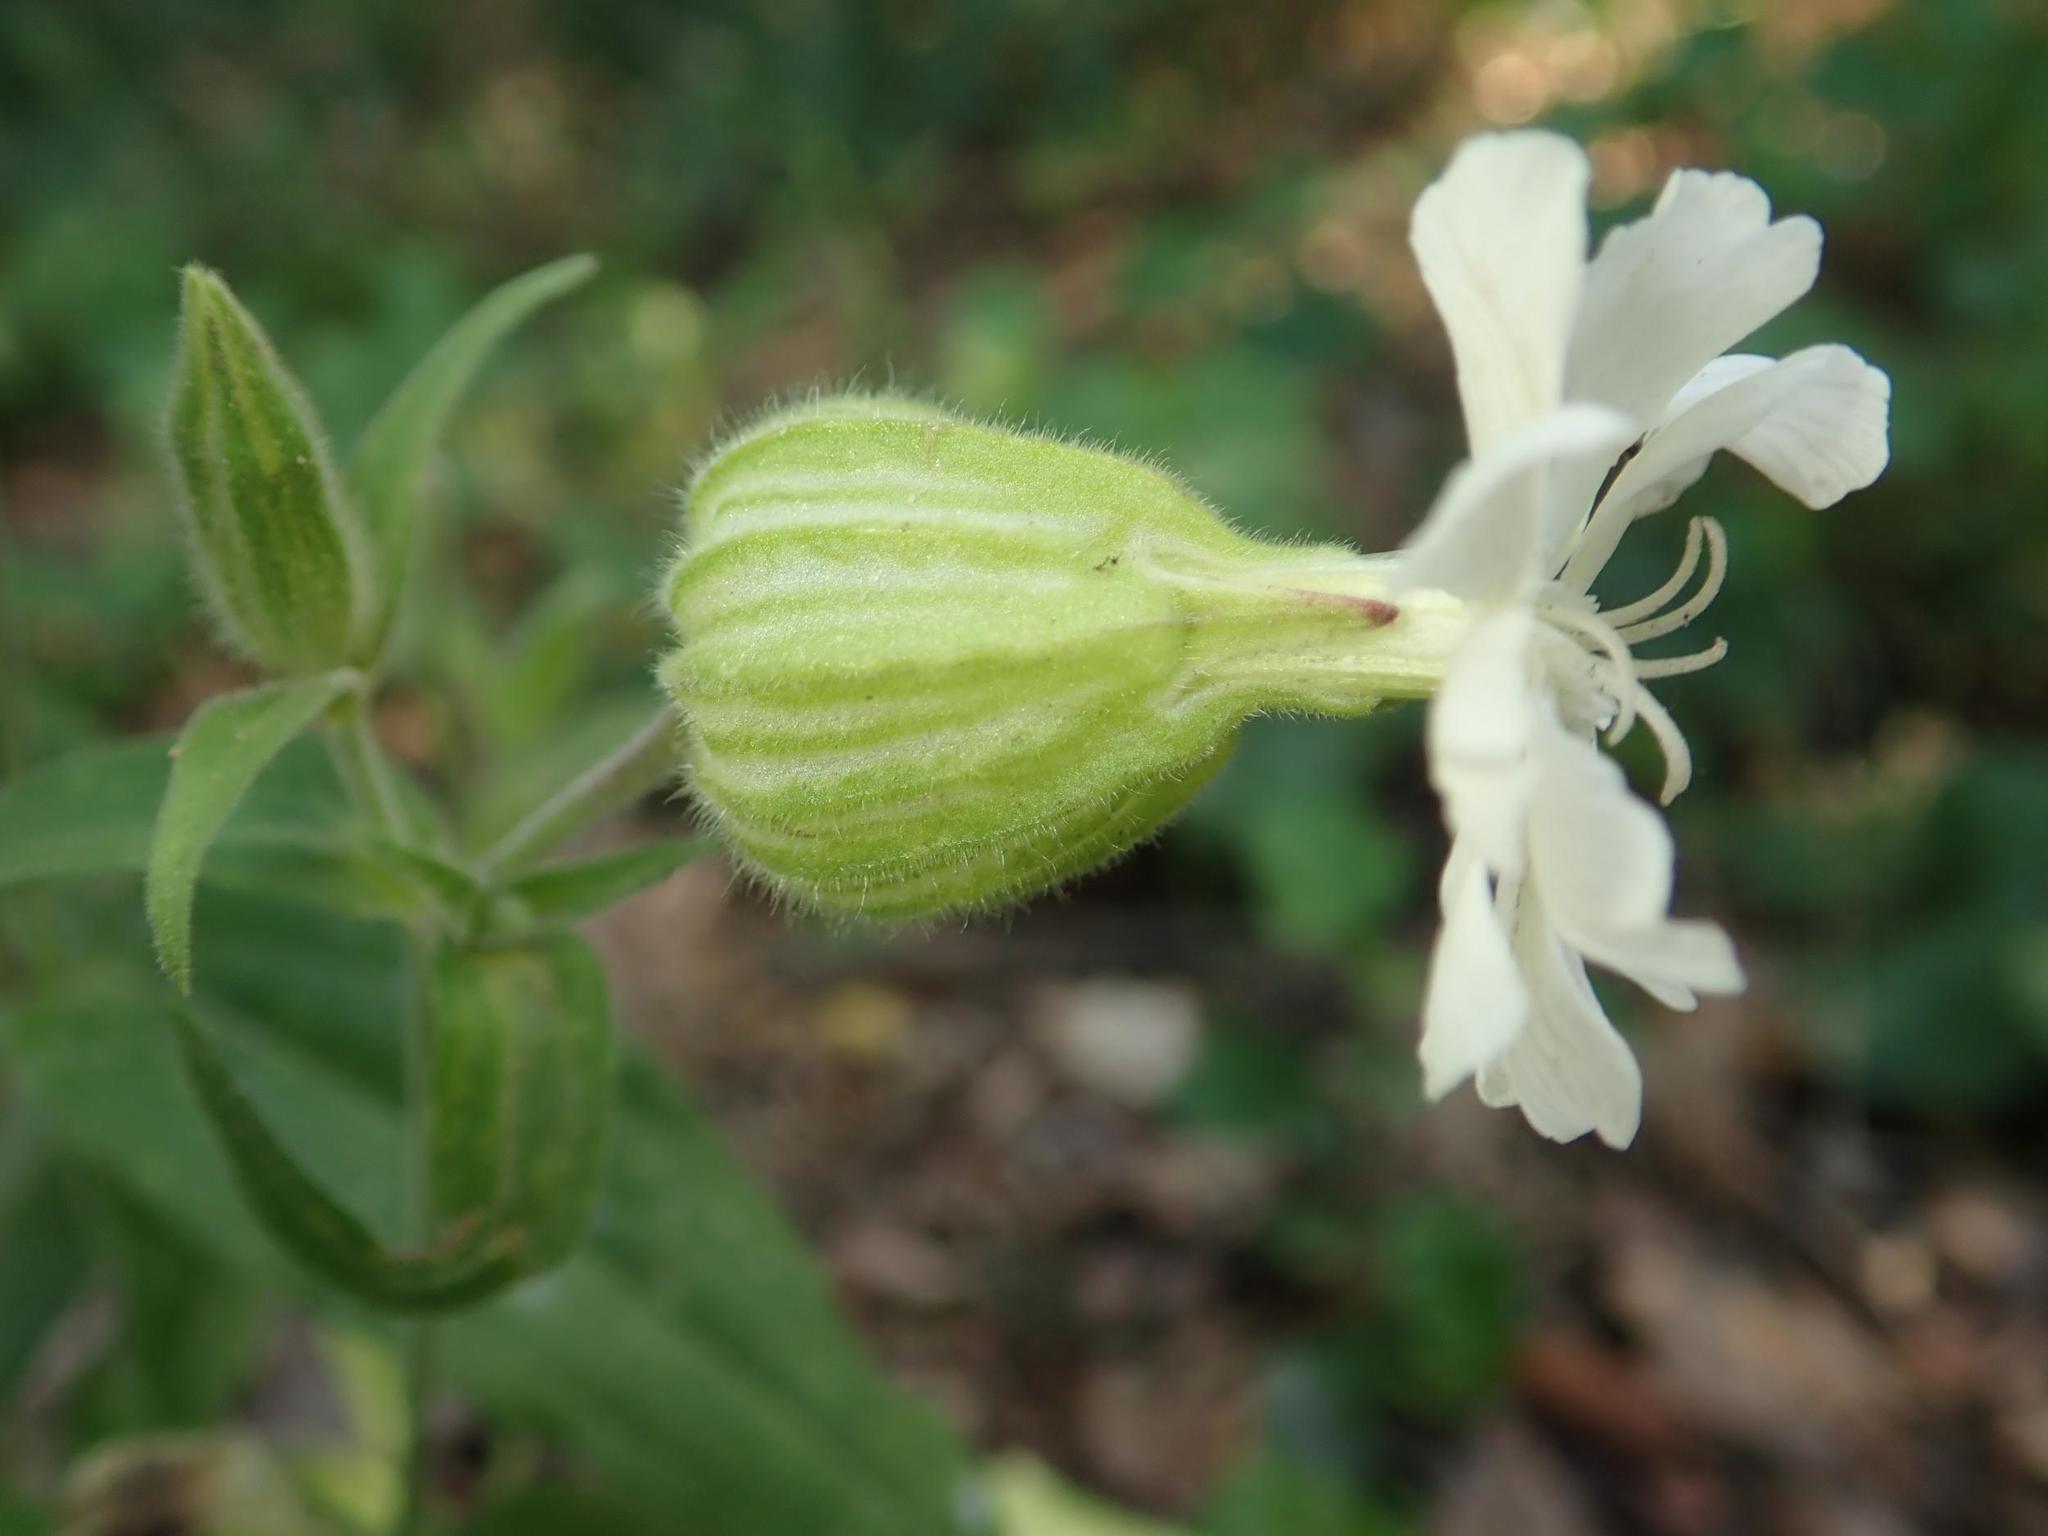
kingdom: Plantae
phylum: Tracheophyta
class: Magnoliopsida
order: Caryophyllales
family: Caryophyllaceae
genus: Silene
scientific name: Silene latifolia
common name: White campion
